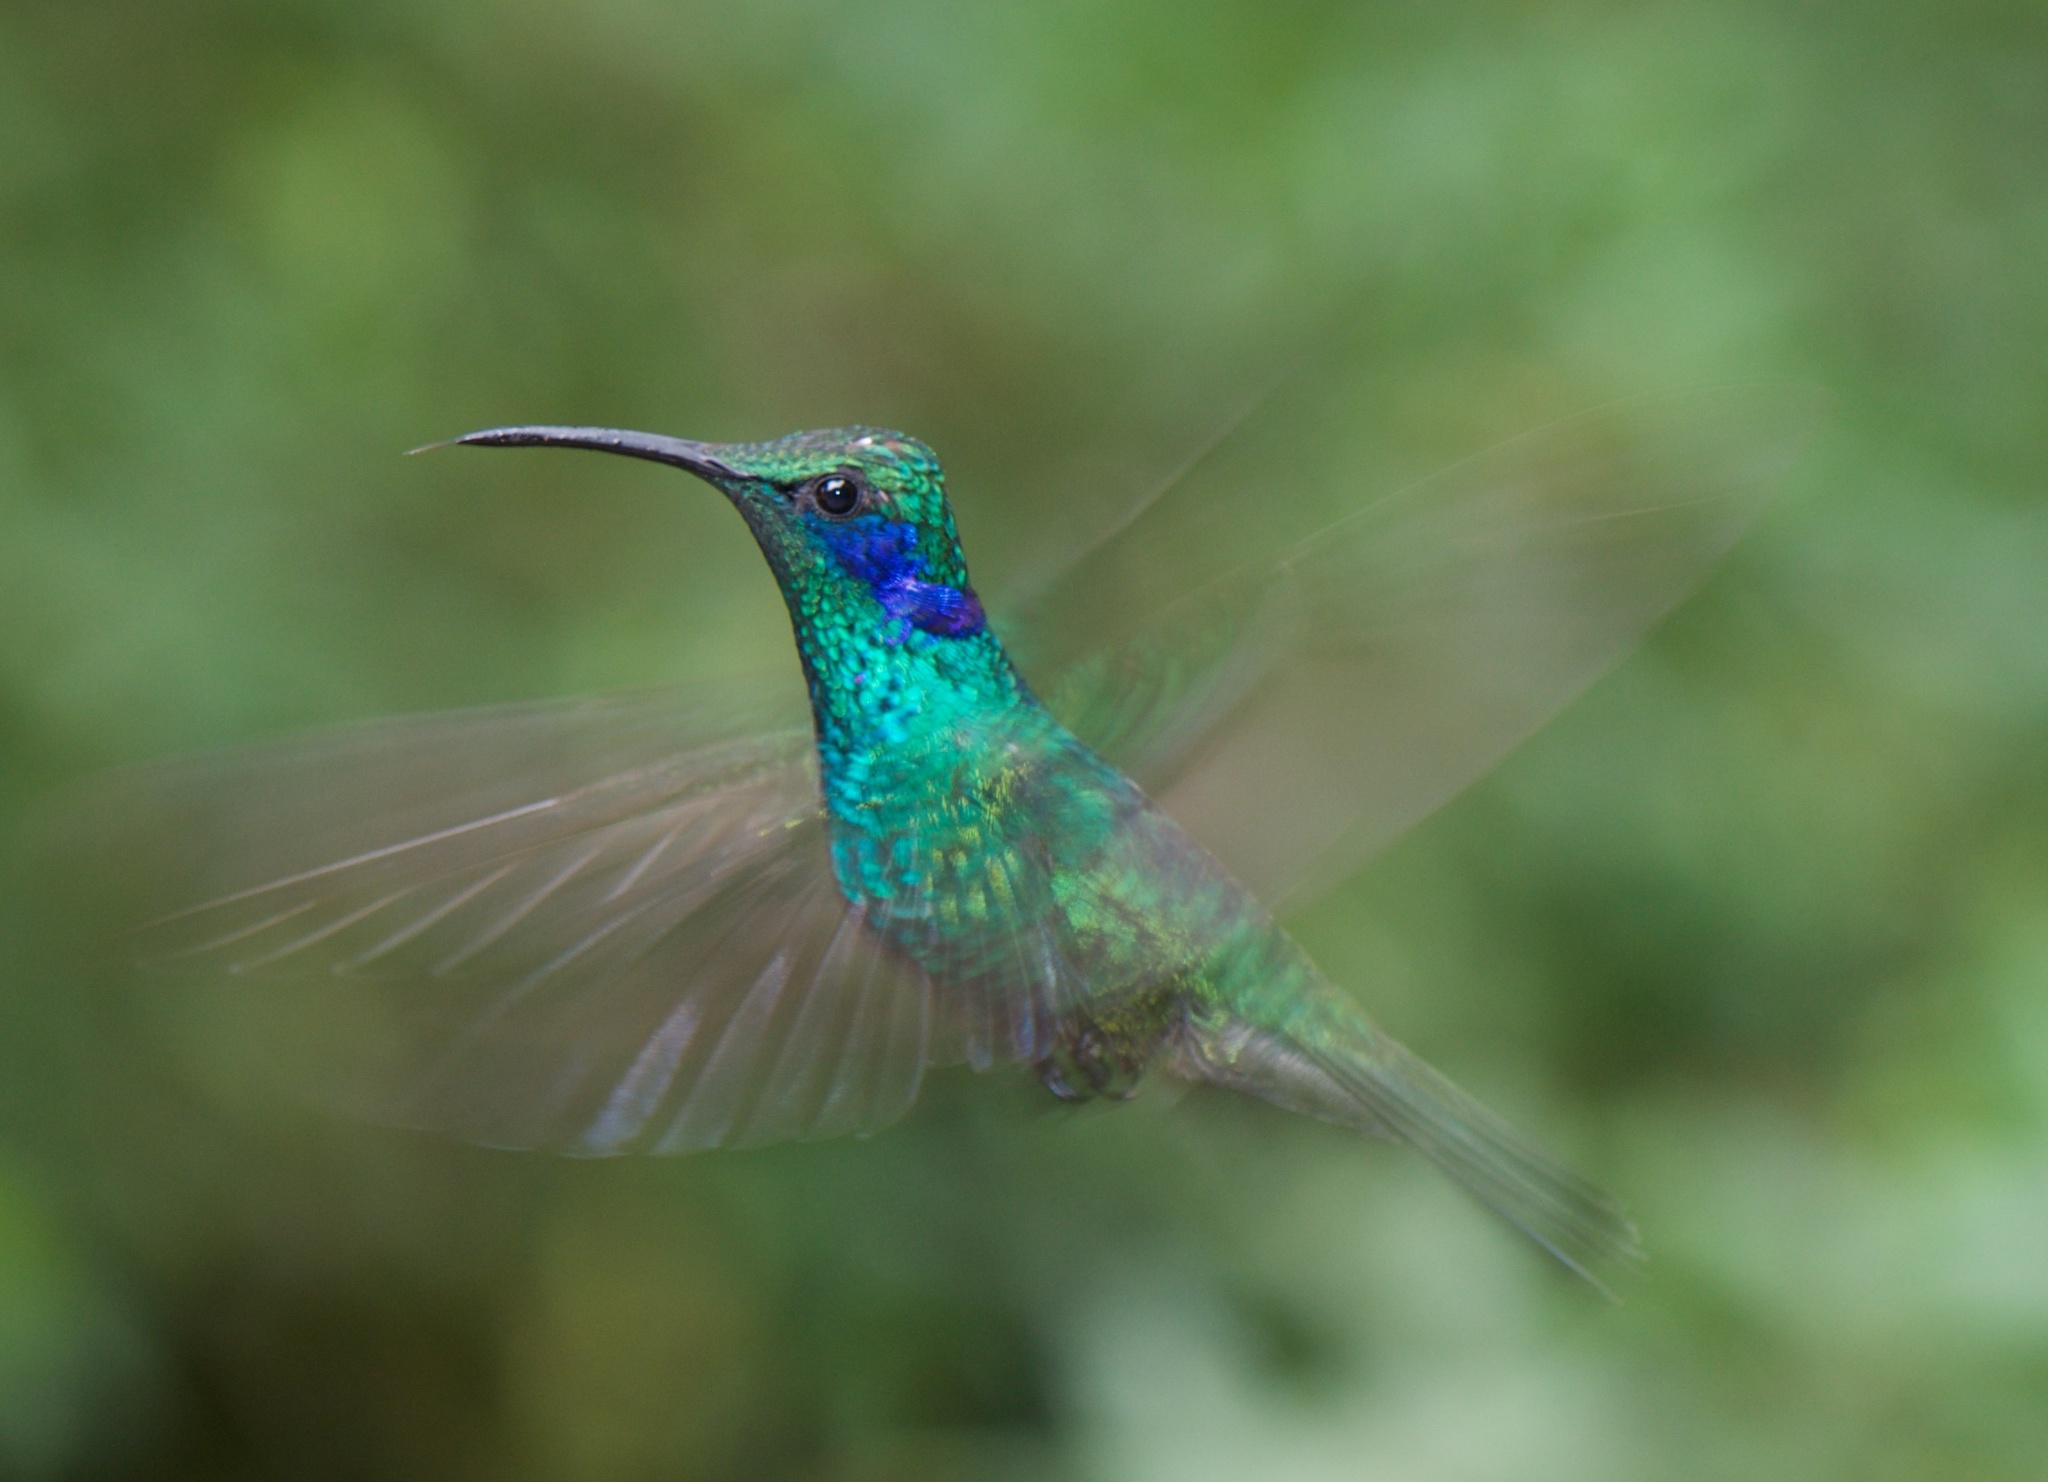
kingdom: Animalia
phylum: Chordata
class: Aves
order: Apodiformes
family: Trochilidae
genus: Colibri
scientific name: Colibri cyanotus
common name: Lesser violetear
